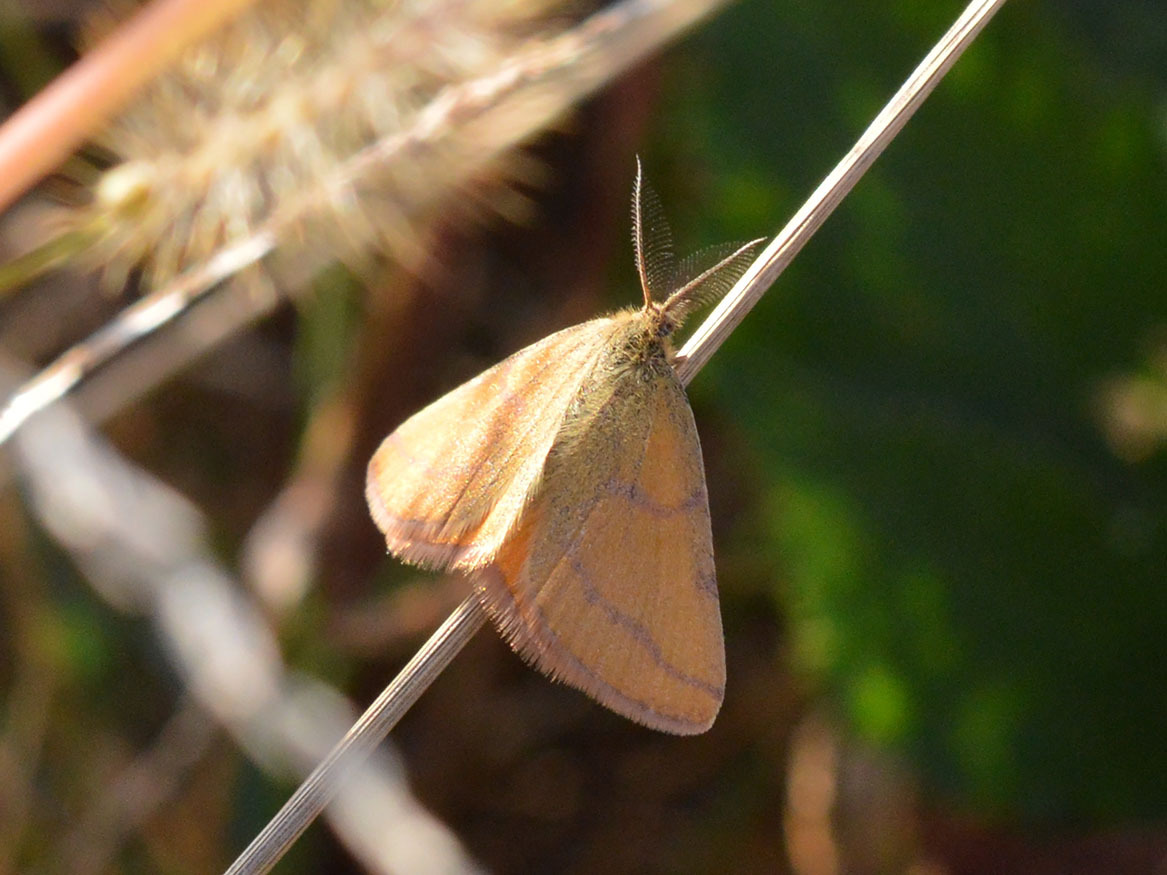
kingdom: Animalia
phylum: Arthropoda
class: Insecta
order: Lepidoptera
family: Geometridae
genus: Lythria
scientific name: Lythria purpuraria
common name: Purple-barred yellow
